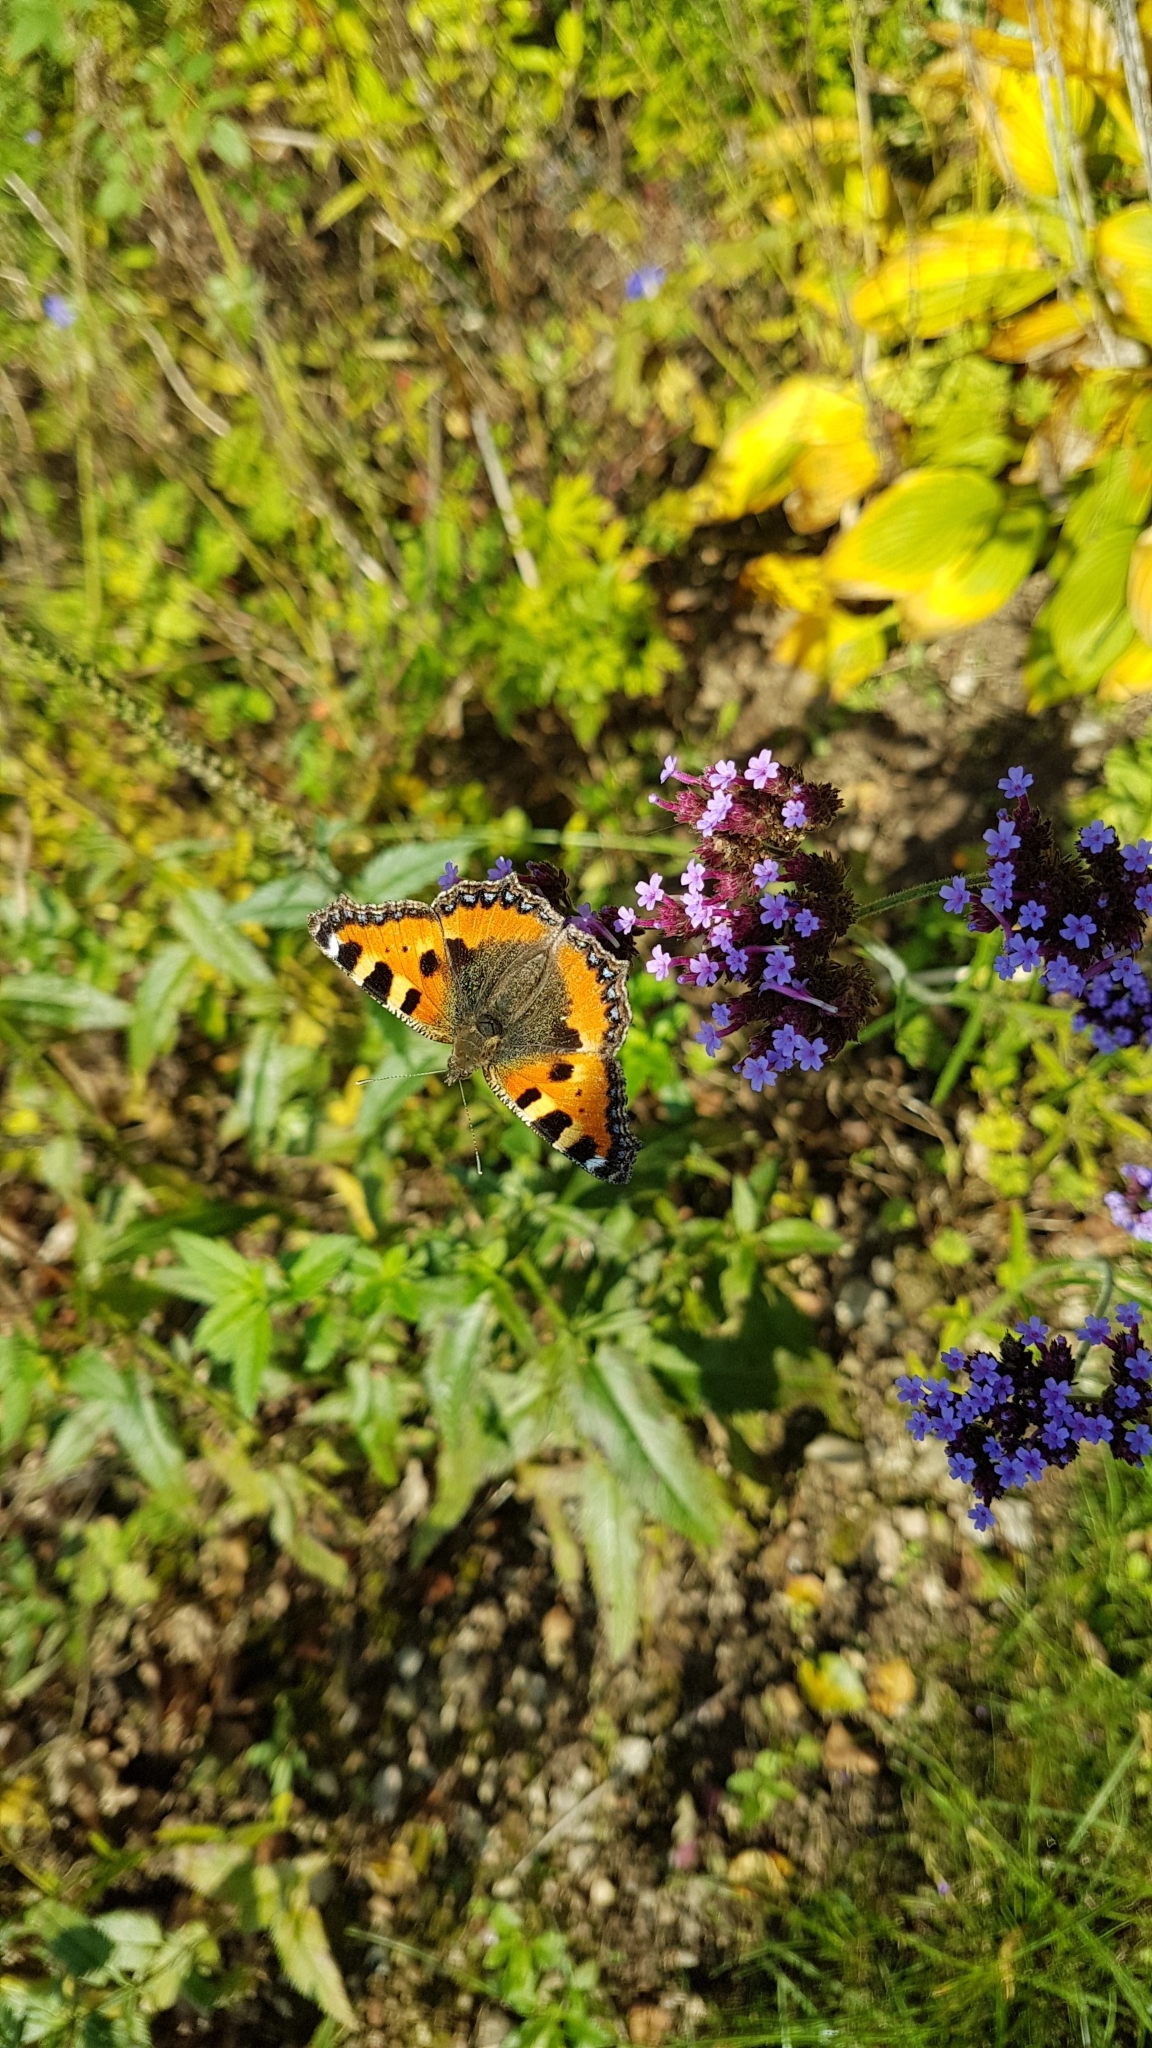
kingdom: Animalia
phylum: Arthropoda
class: Insecta
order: Lepidoptera
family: Nymphalidae
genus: Aglais
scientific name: Aglais urticae
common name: Small tortoiseshell
